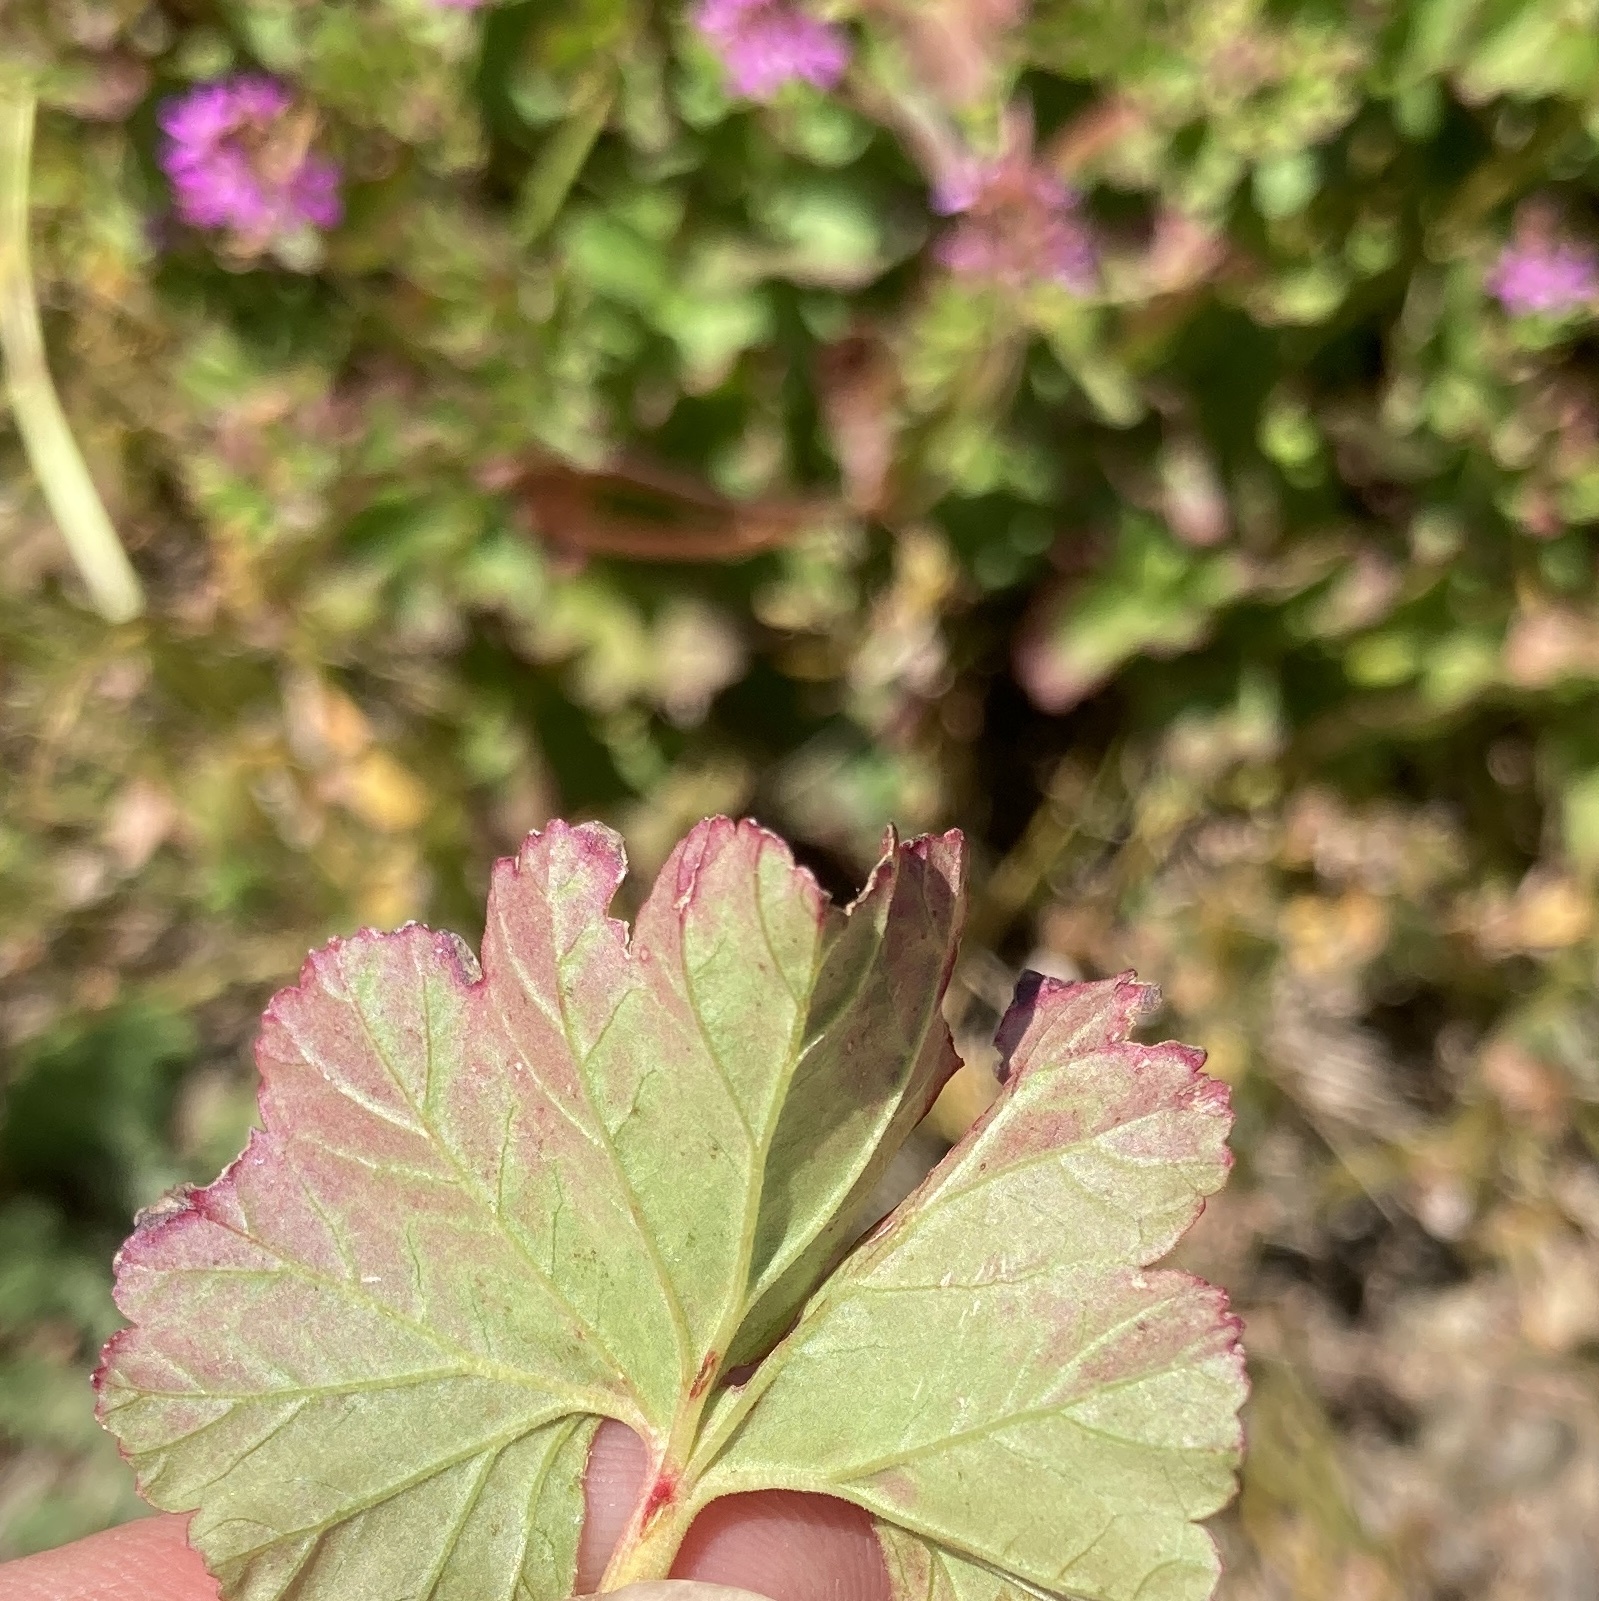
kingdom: Plantae
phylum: Tracheophyta
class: Magnoliopsida
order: Geraniales
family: Geraniaceae
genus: Pelargonium
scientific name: Pelargonium grossularioides
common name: Gooseberry geranium
